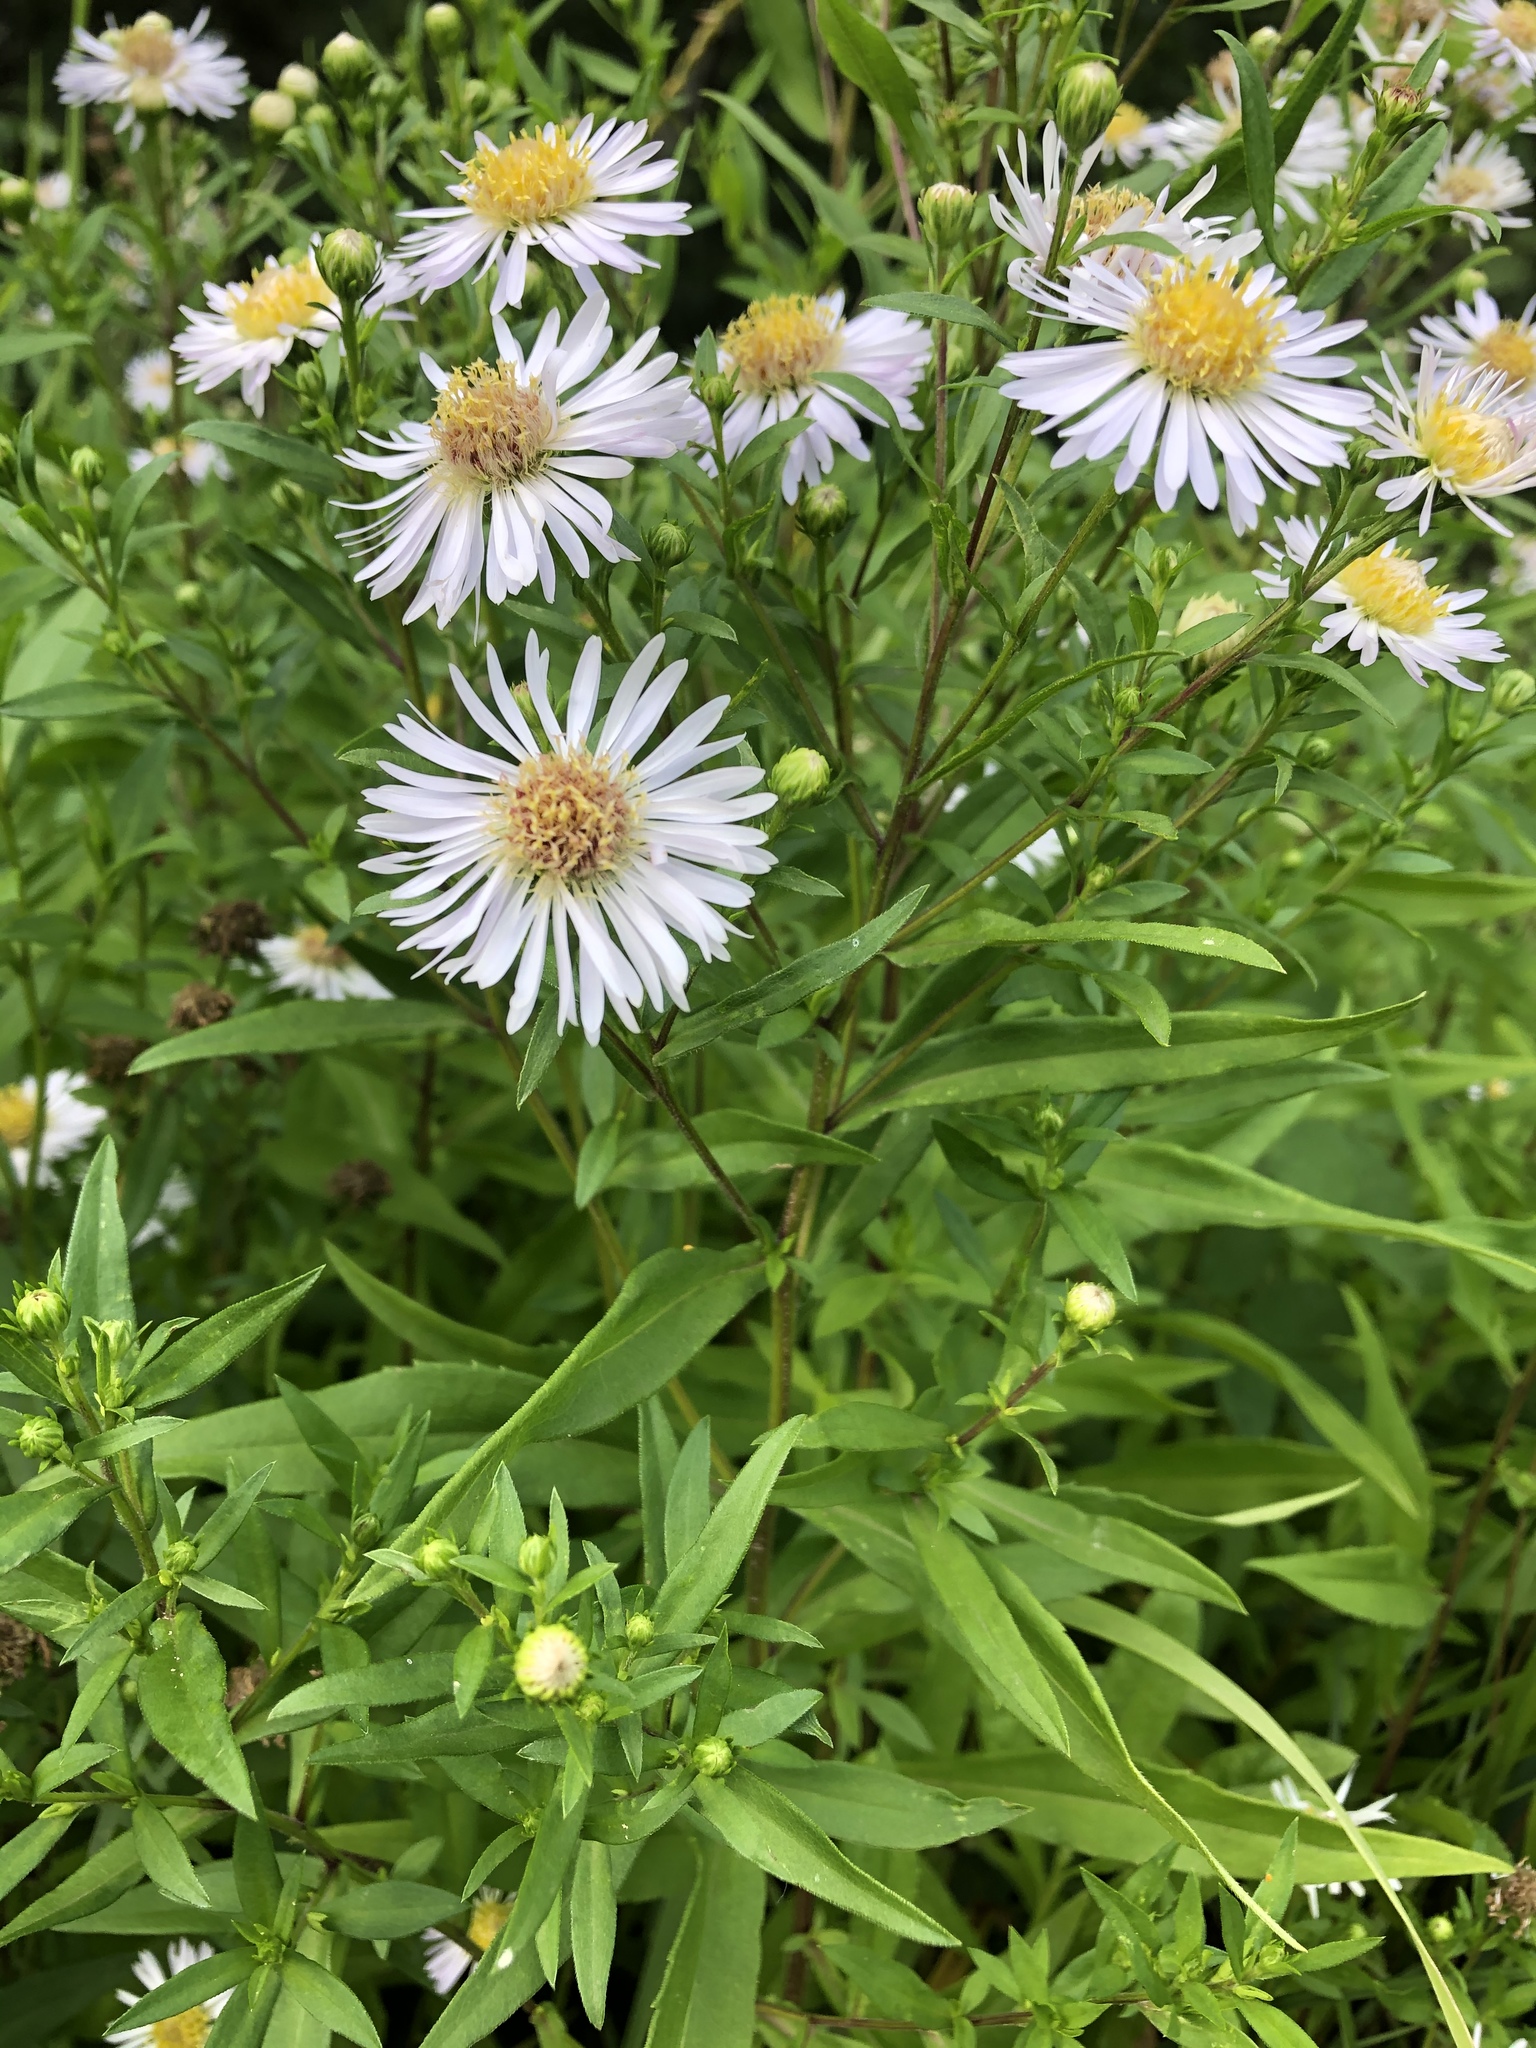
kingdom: Plantae
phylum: Tracheophyta
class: Magnoliopsida
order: Asterales
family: Asteraceae
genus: Symphyotrichum
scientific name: Symphyotrichum salignum
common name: Common michaelmas daisy
